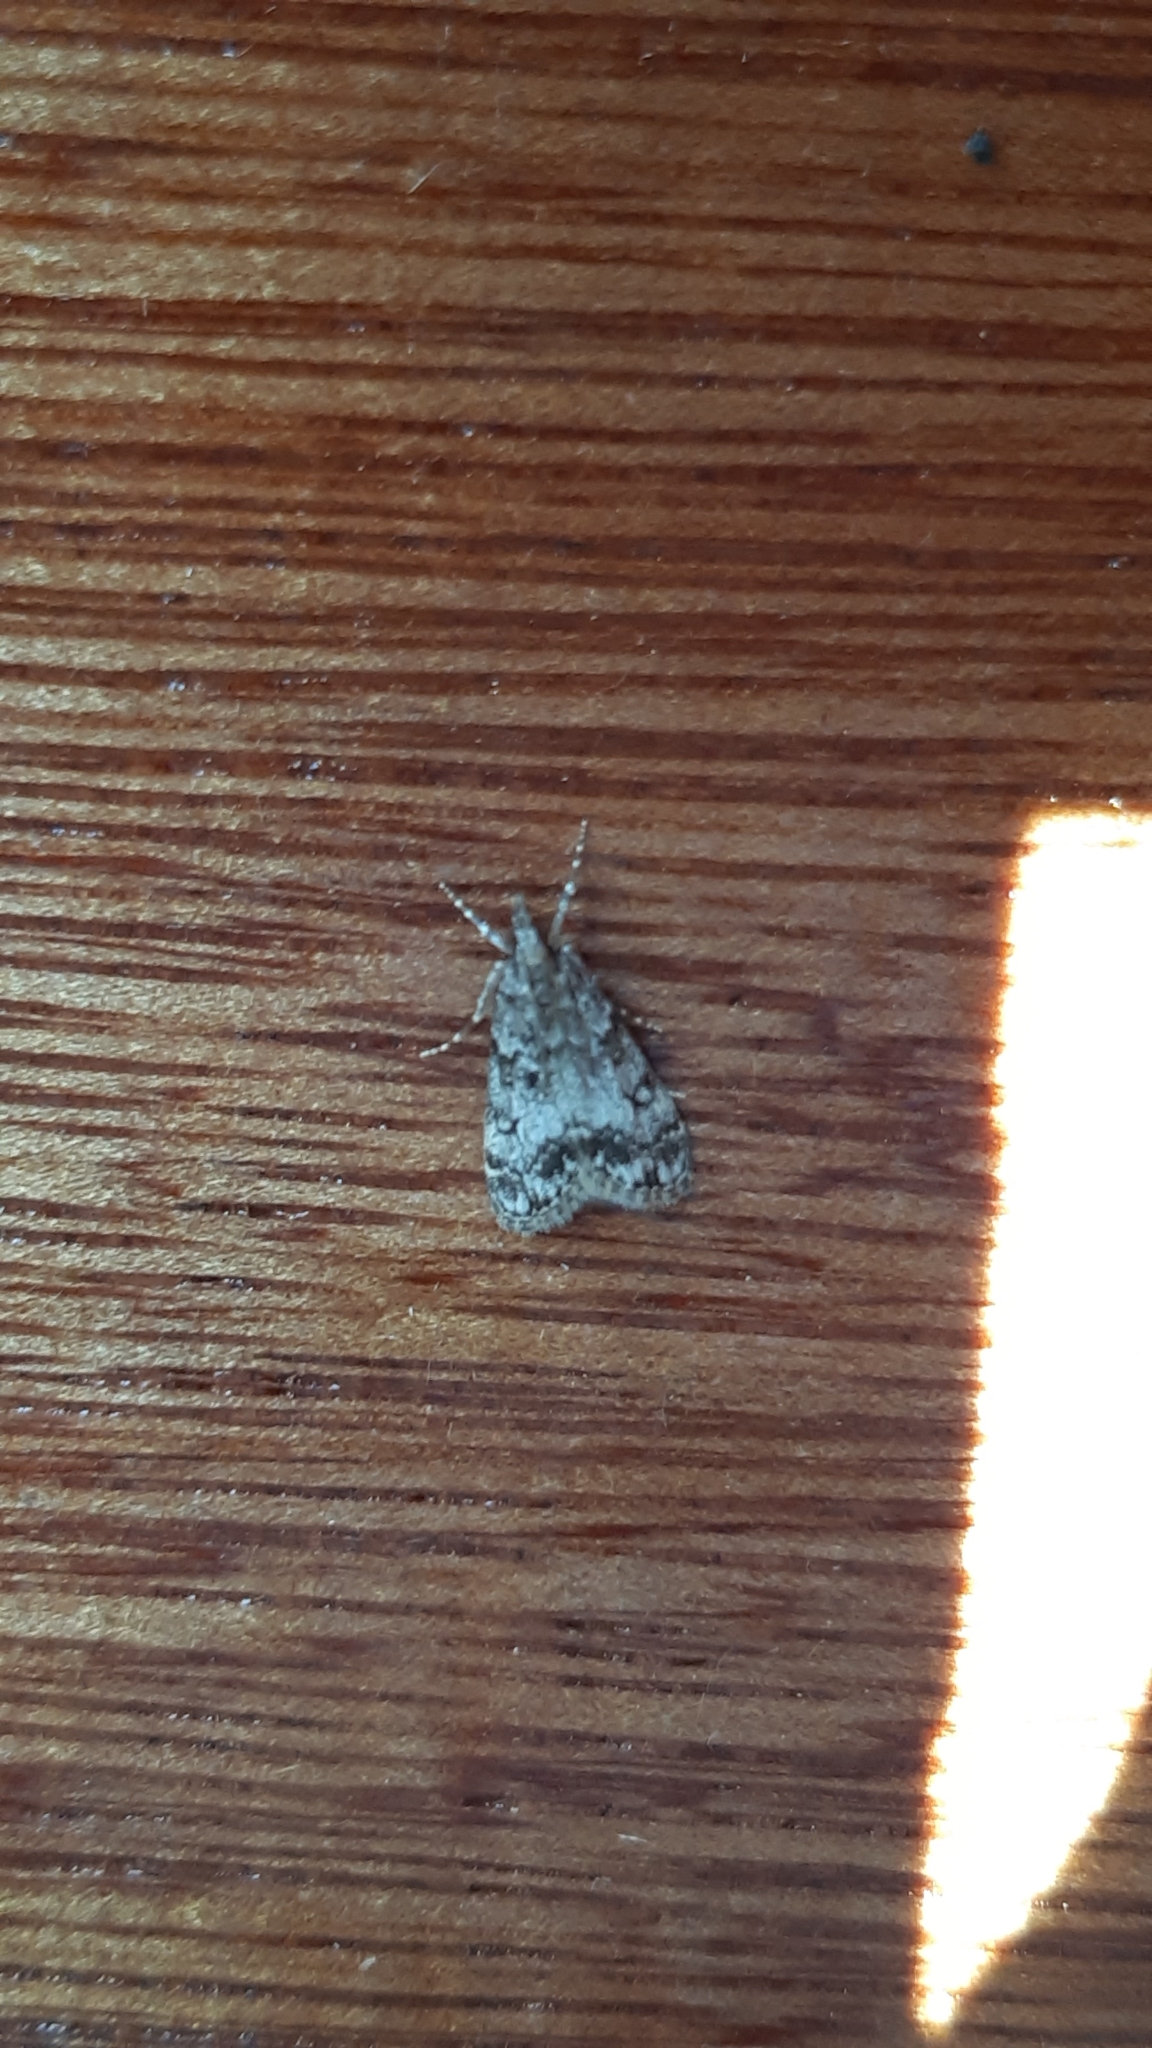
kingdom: Animalia
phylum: Arthropoda
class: Insecta
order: Lepidoptera
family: Crambidae
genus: Eudonia
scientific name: Eudonia lacustrata
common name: Little grey
